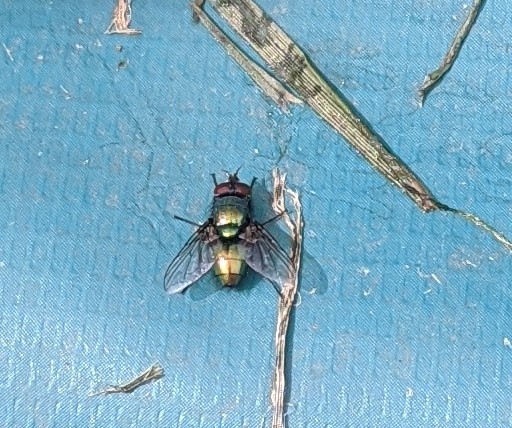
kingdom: Animalia
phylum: Arthropoda
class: Insecta
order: Diptera
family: Calliphoridae
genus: Lucilia
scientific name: Lucilia sericata
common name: Blow fly
